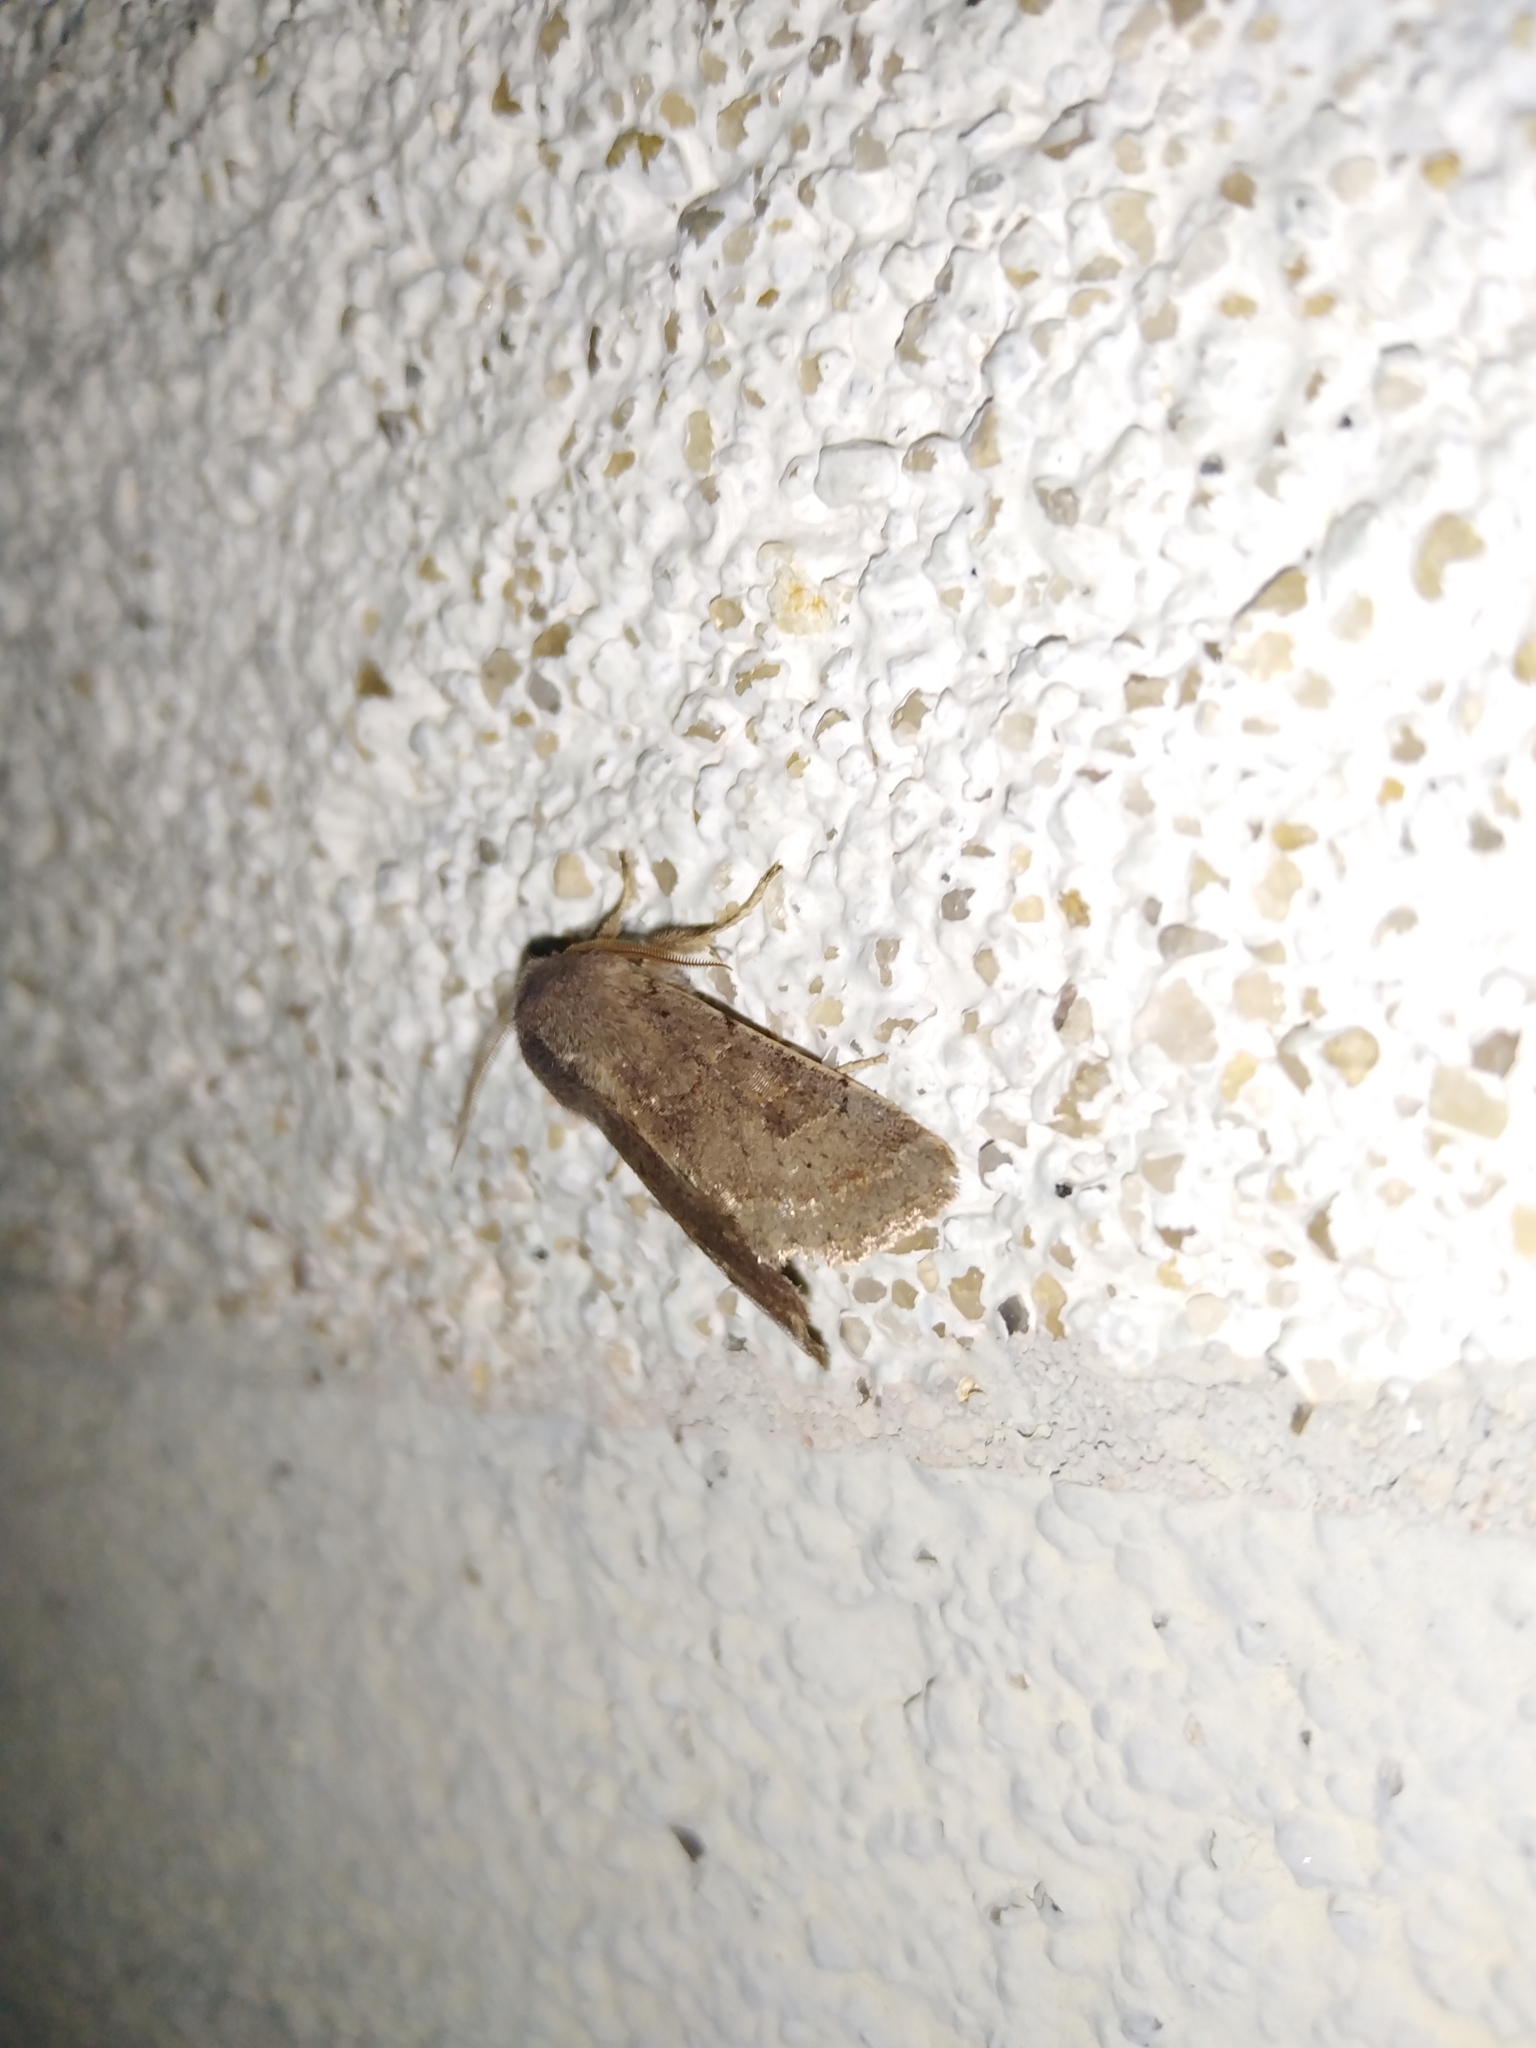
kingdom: Animalia
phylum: Arthropoda
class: Insecta
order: Lepidoptera
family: Noctuidae
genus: Orthosia
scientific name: Orthosia incerta
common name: Clouded drab
